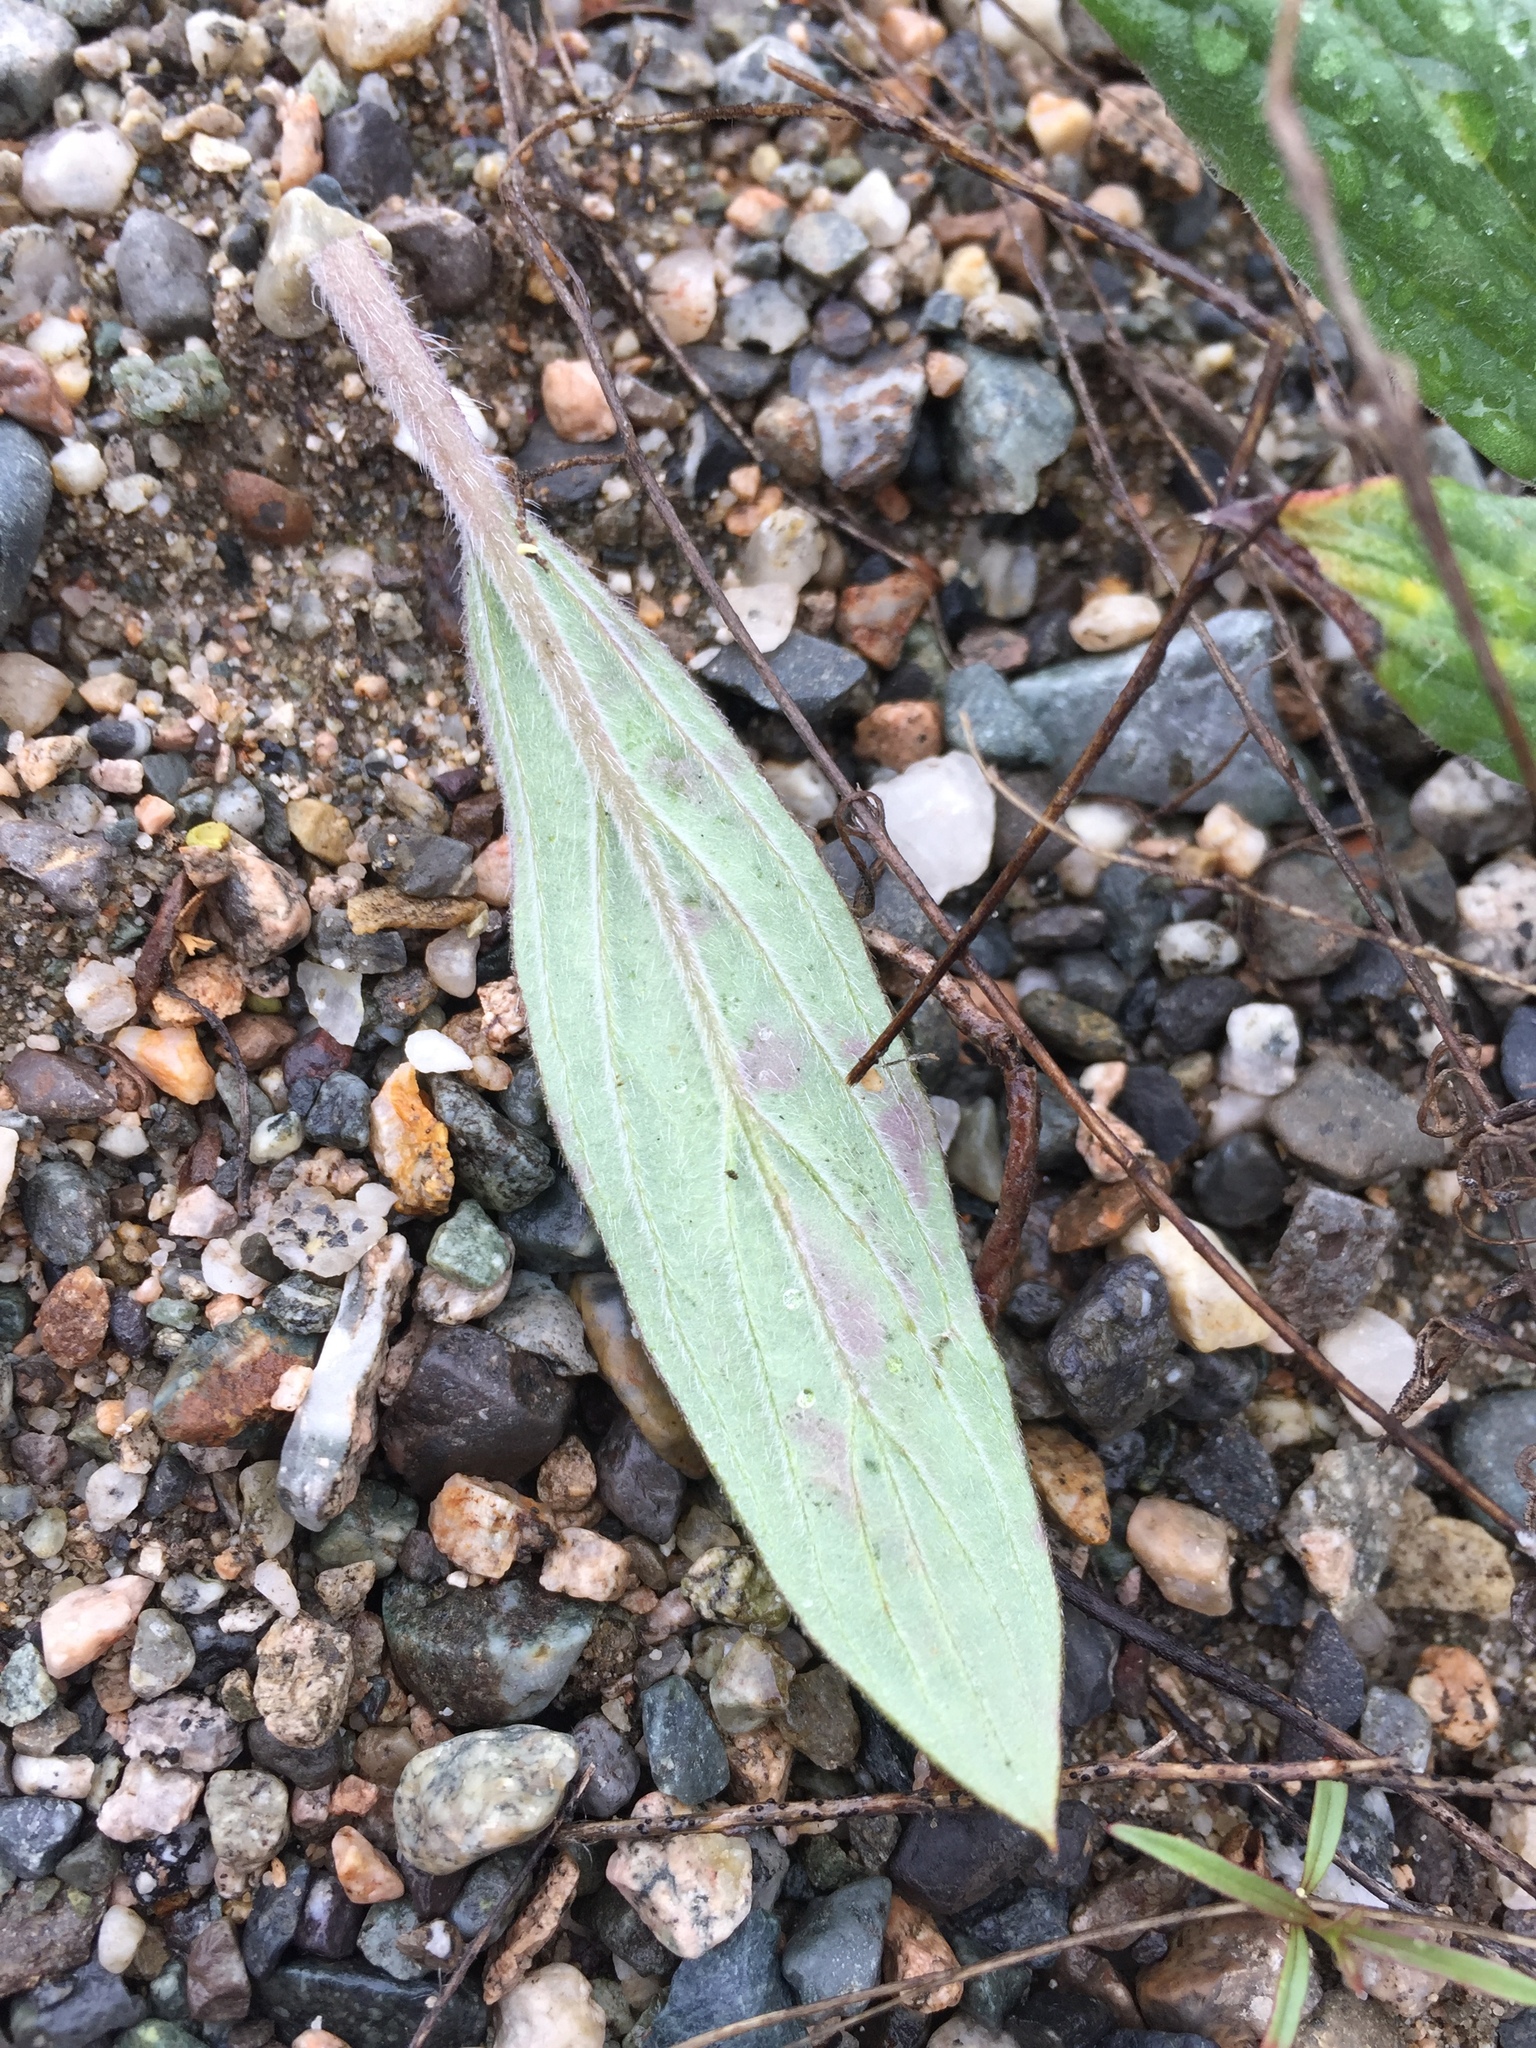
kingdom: Plantae
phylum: Tracheophyta
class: Magnoliopsida
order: Boraginales
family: Hydrophyllaceae
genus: Phacelia
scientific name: Phacelia hastata
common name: Silver-leaved phacelia
